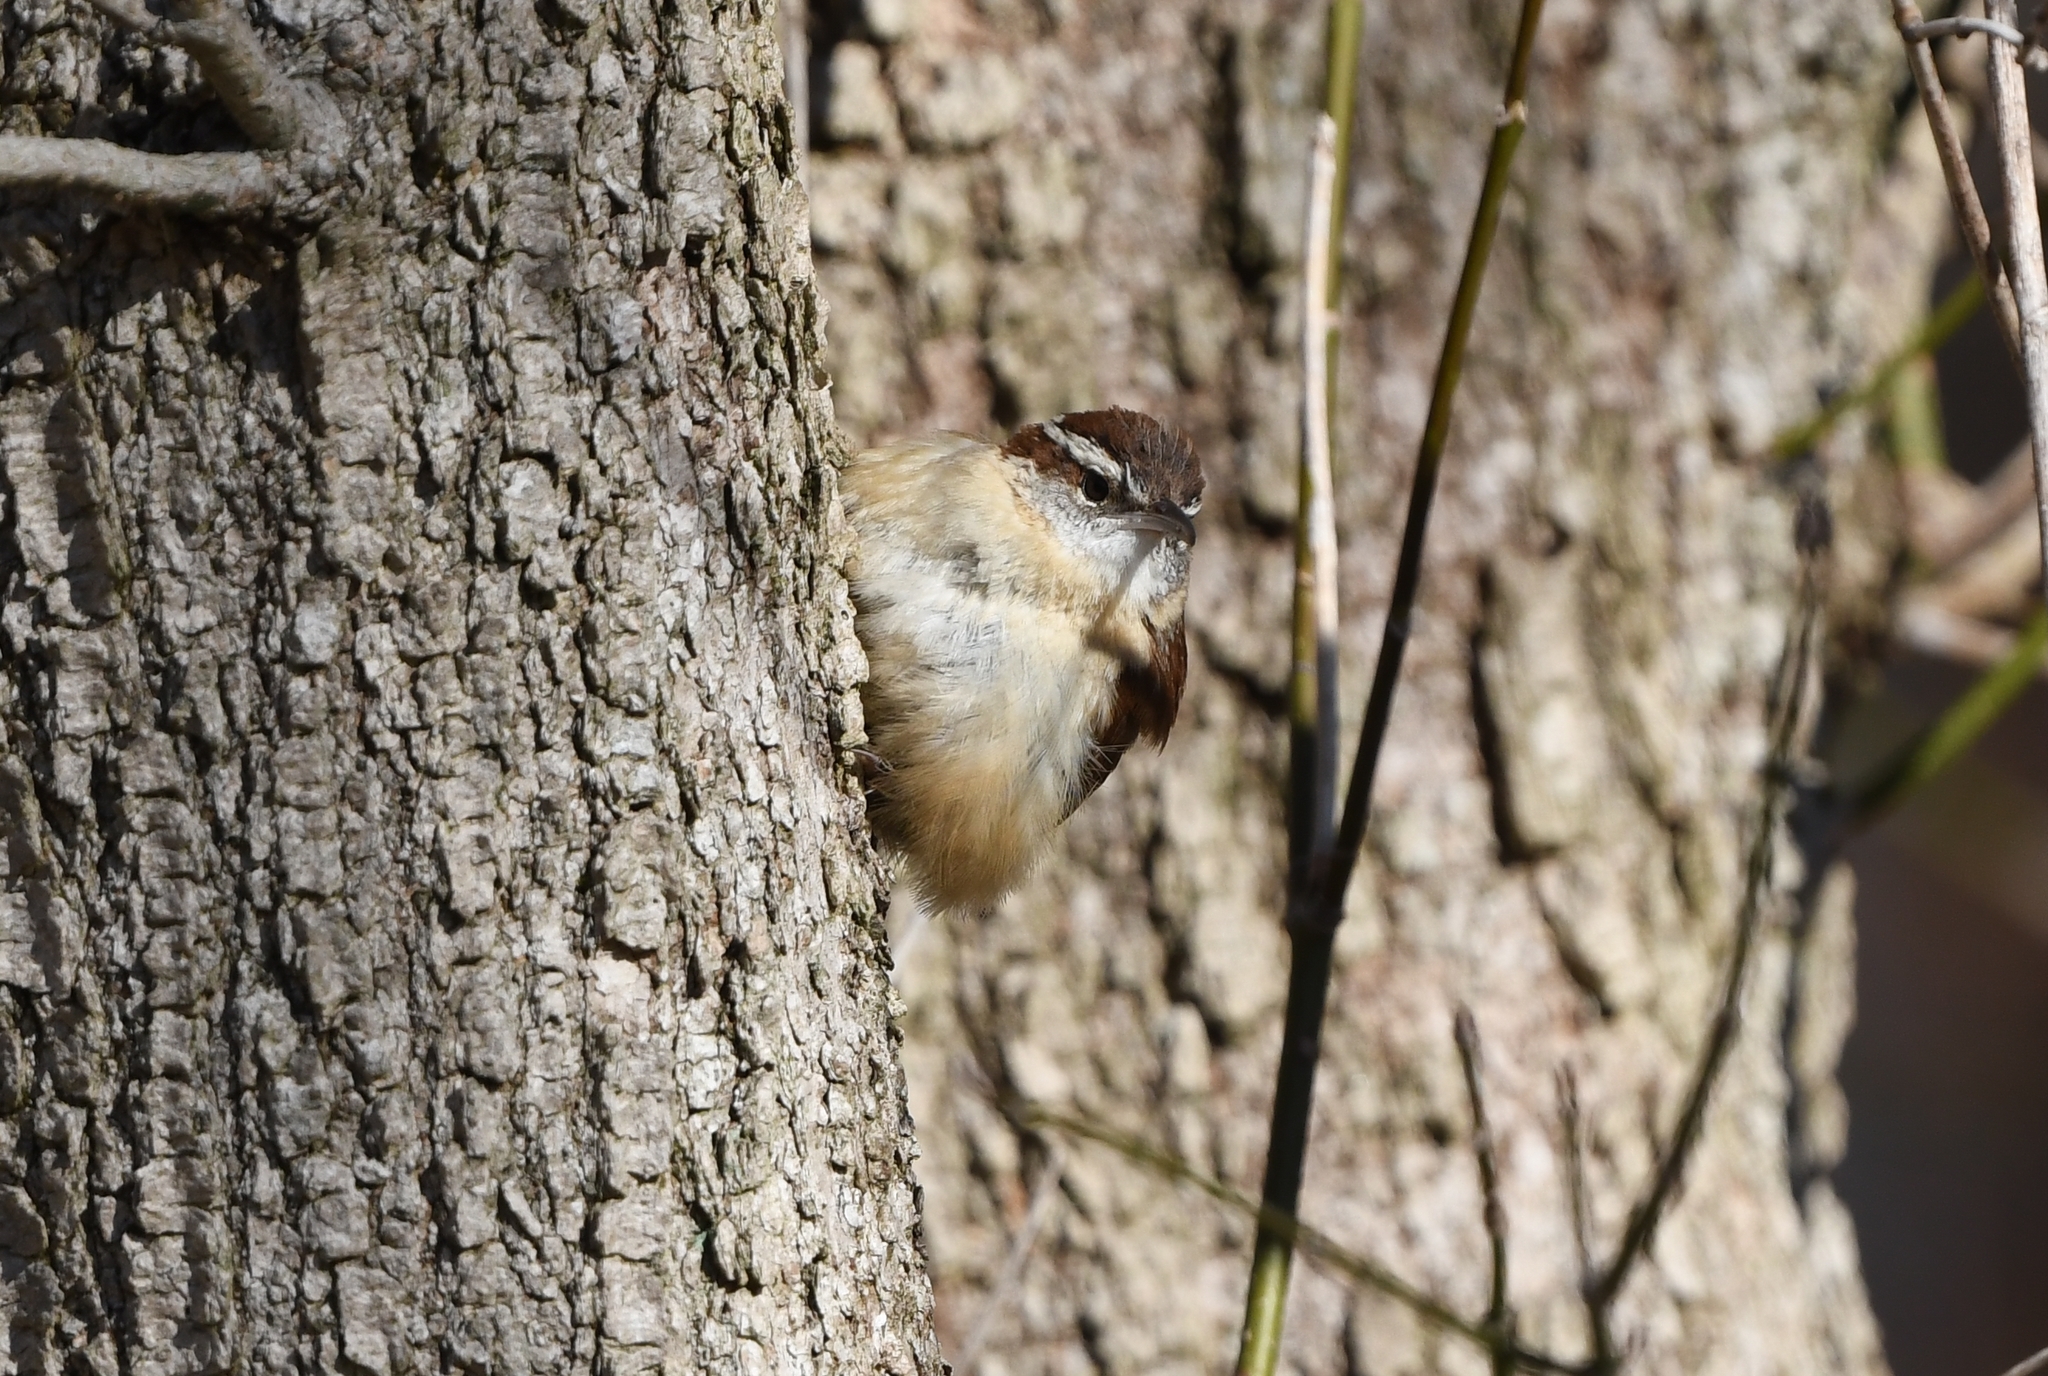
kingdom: Animalia
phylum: Chordata
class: Aves
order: Passeriformes
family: Troglodytidae
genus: Thryothorus
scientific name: Thryothorus ludovicianus
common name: Carolina wren
